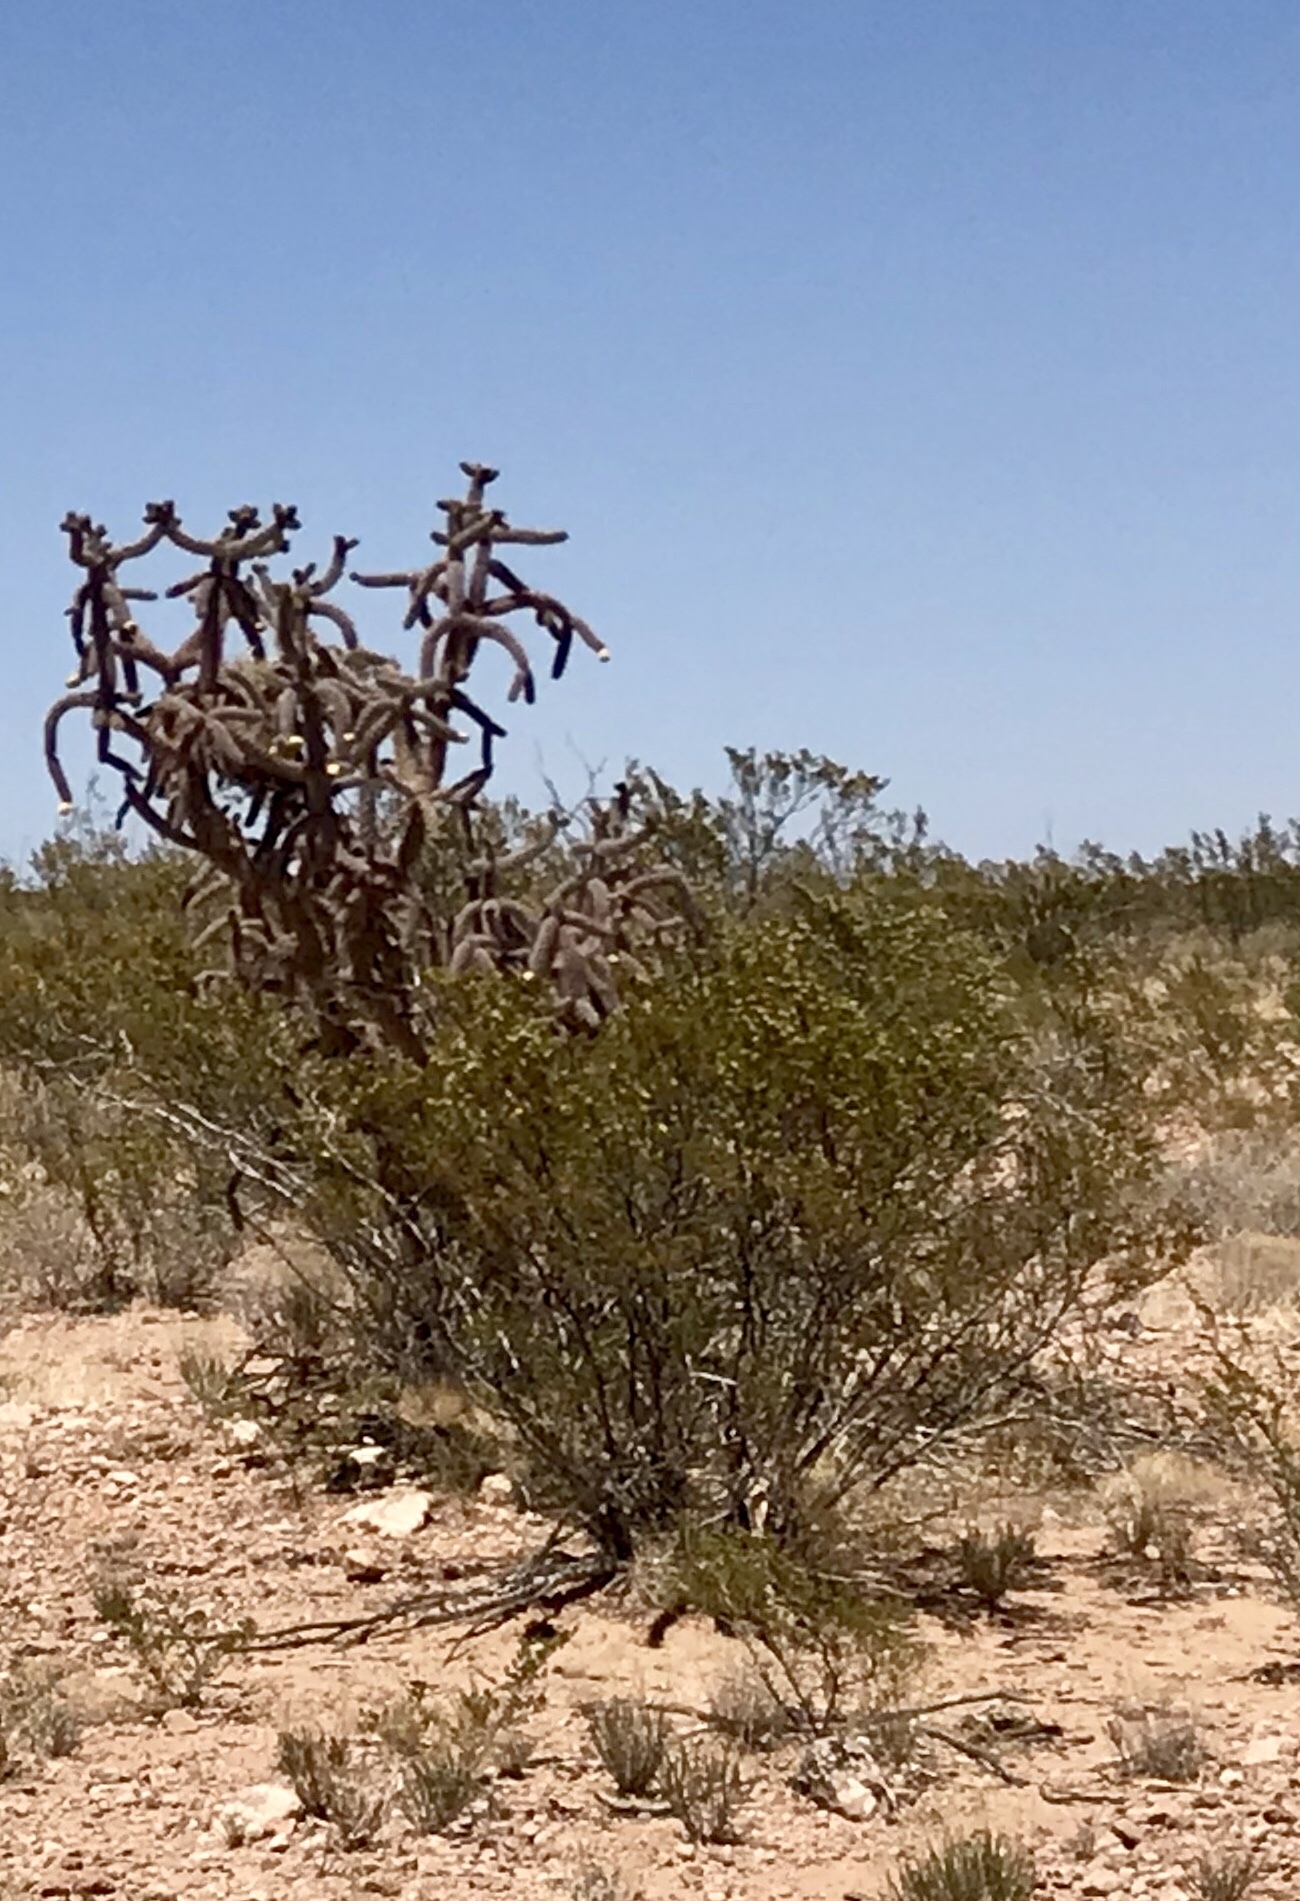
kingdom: Plantae
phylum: Tracheophyta
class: Magnoliopsida
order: Zygophyllales
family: Zygophyllaceae
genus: Larrea
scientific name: Larrea tridentata
